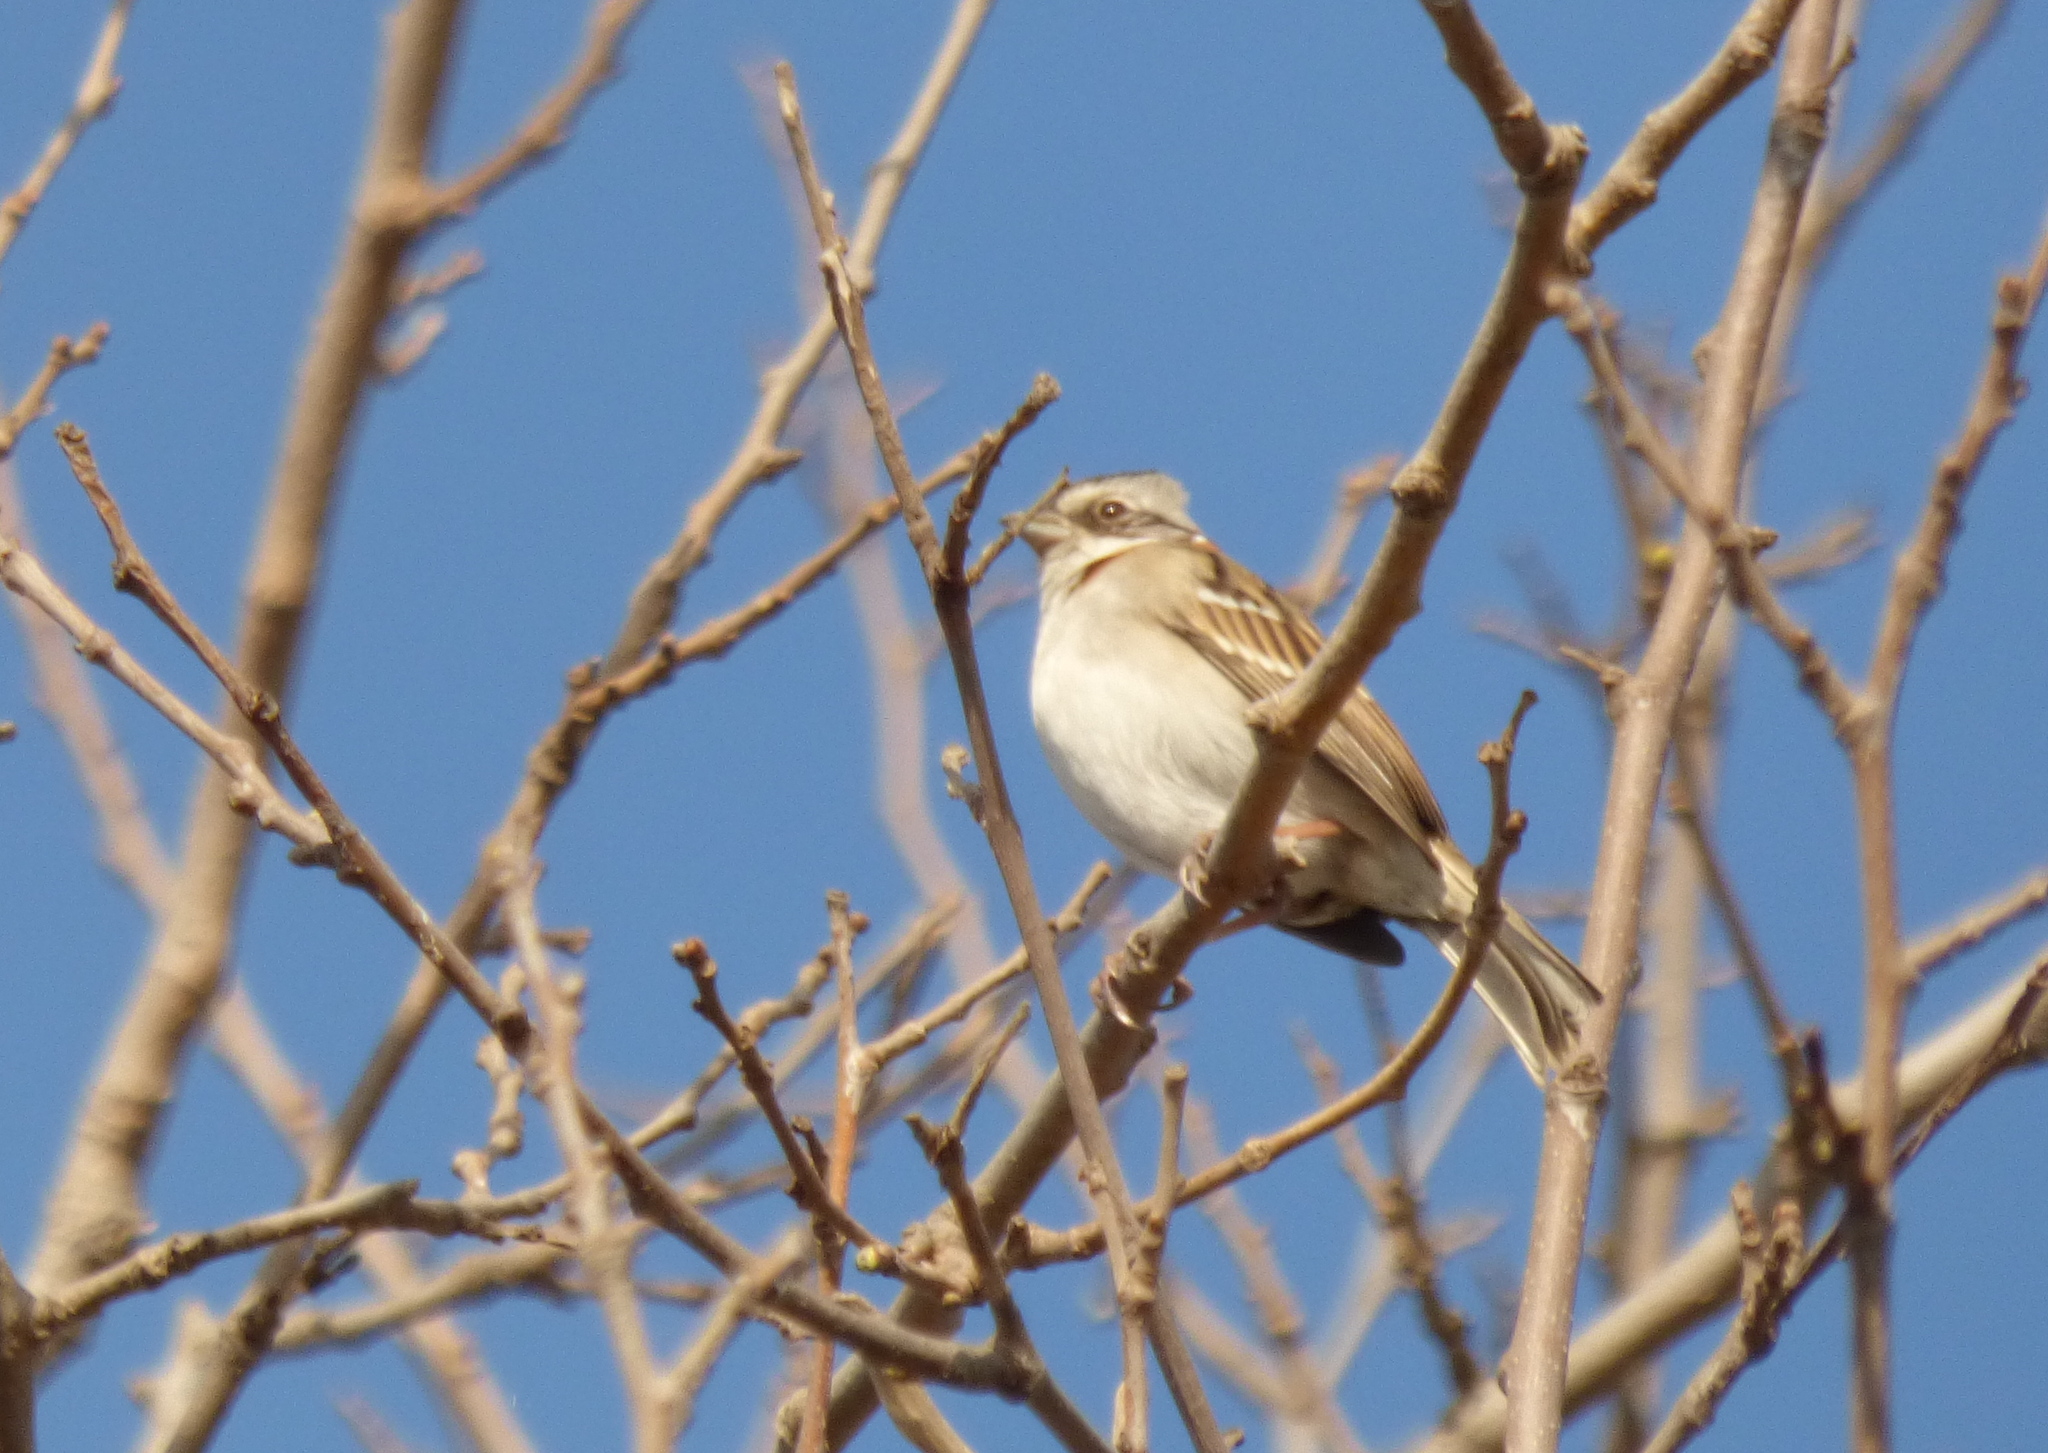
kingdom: Animalia
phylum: Chordata
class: Aves
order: Passeriformes
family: Passerellidae
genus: Zonotrichia
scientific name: Zonotrichia capensis
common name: Rufous-collared sparrow
